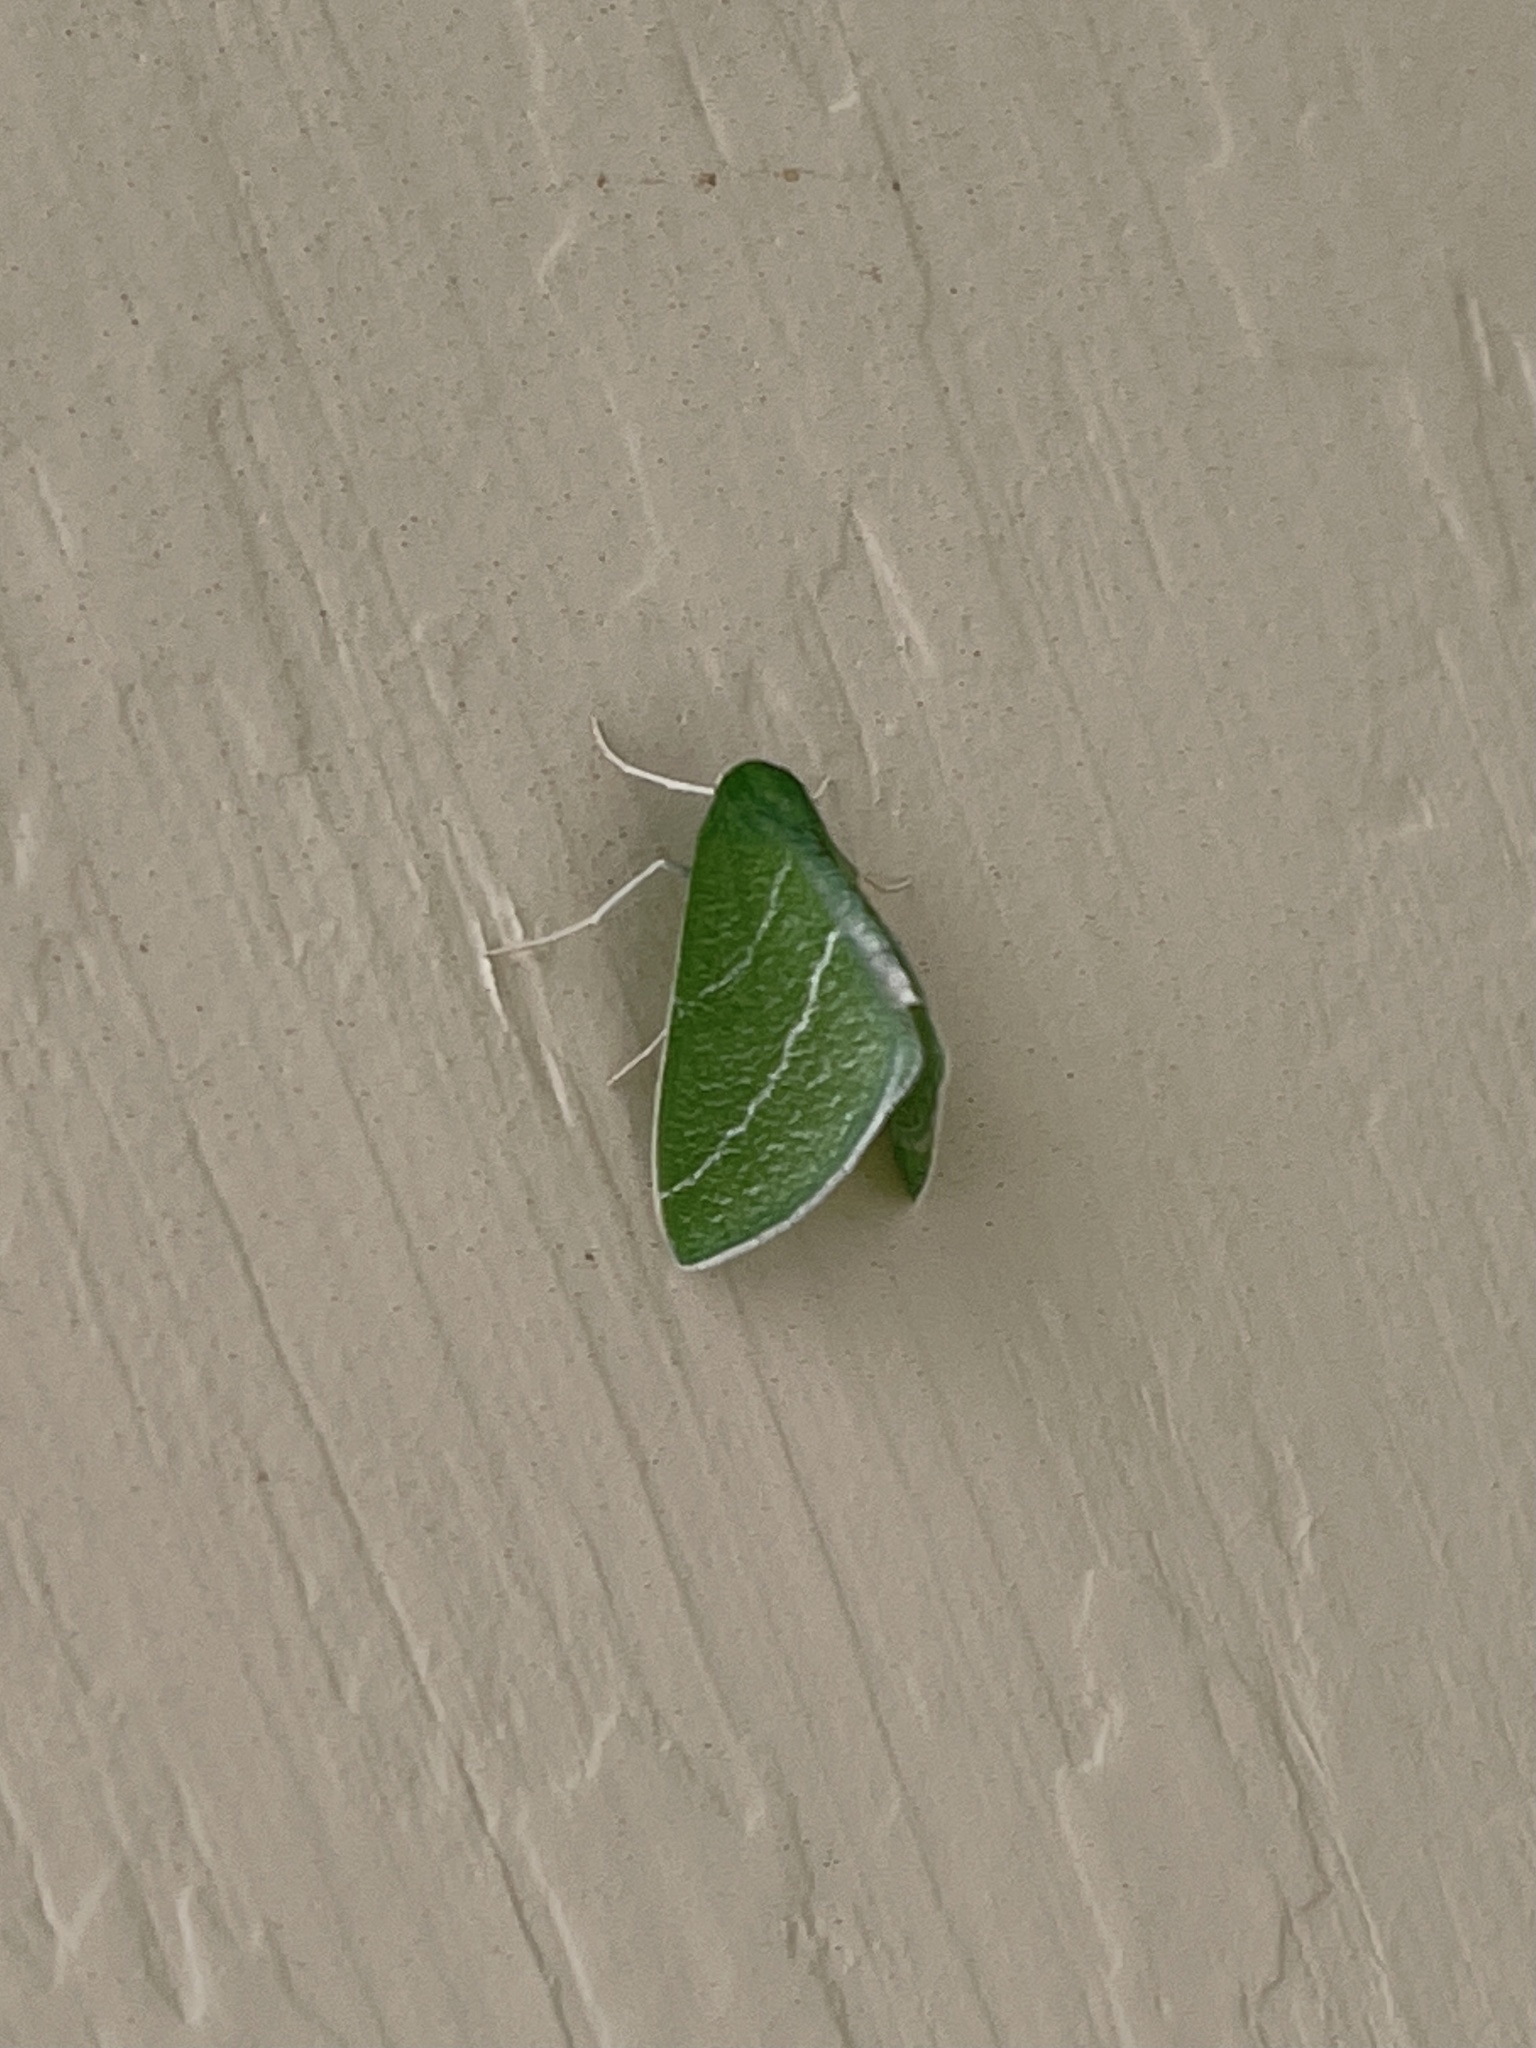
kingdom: Animalia
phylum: Arthropoda
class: Insecta
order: Lepidoptera
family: Geometridae
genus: Synchlora
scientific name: Synchlora bistriaria
